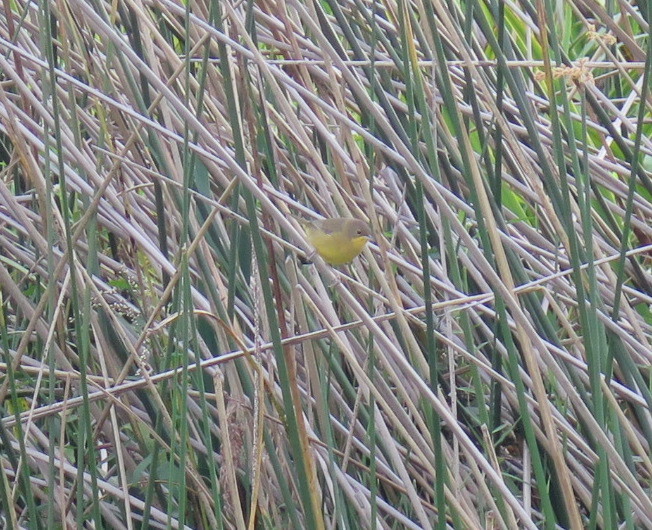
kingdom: Animalia
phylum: Chordata
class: Aves
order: Passeriformes
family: Parulidae
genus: Geothlypis
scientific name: Geothlypis velata
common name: Southern yellowthroat
